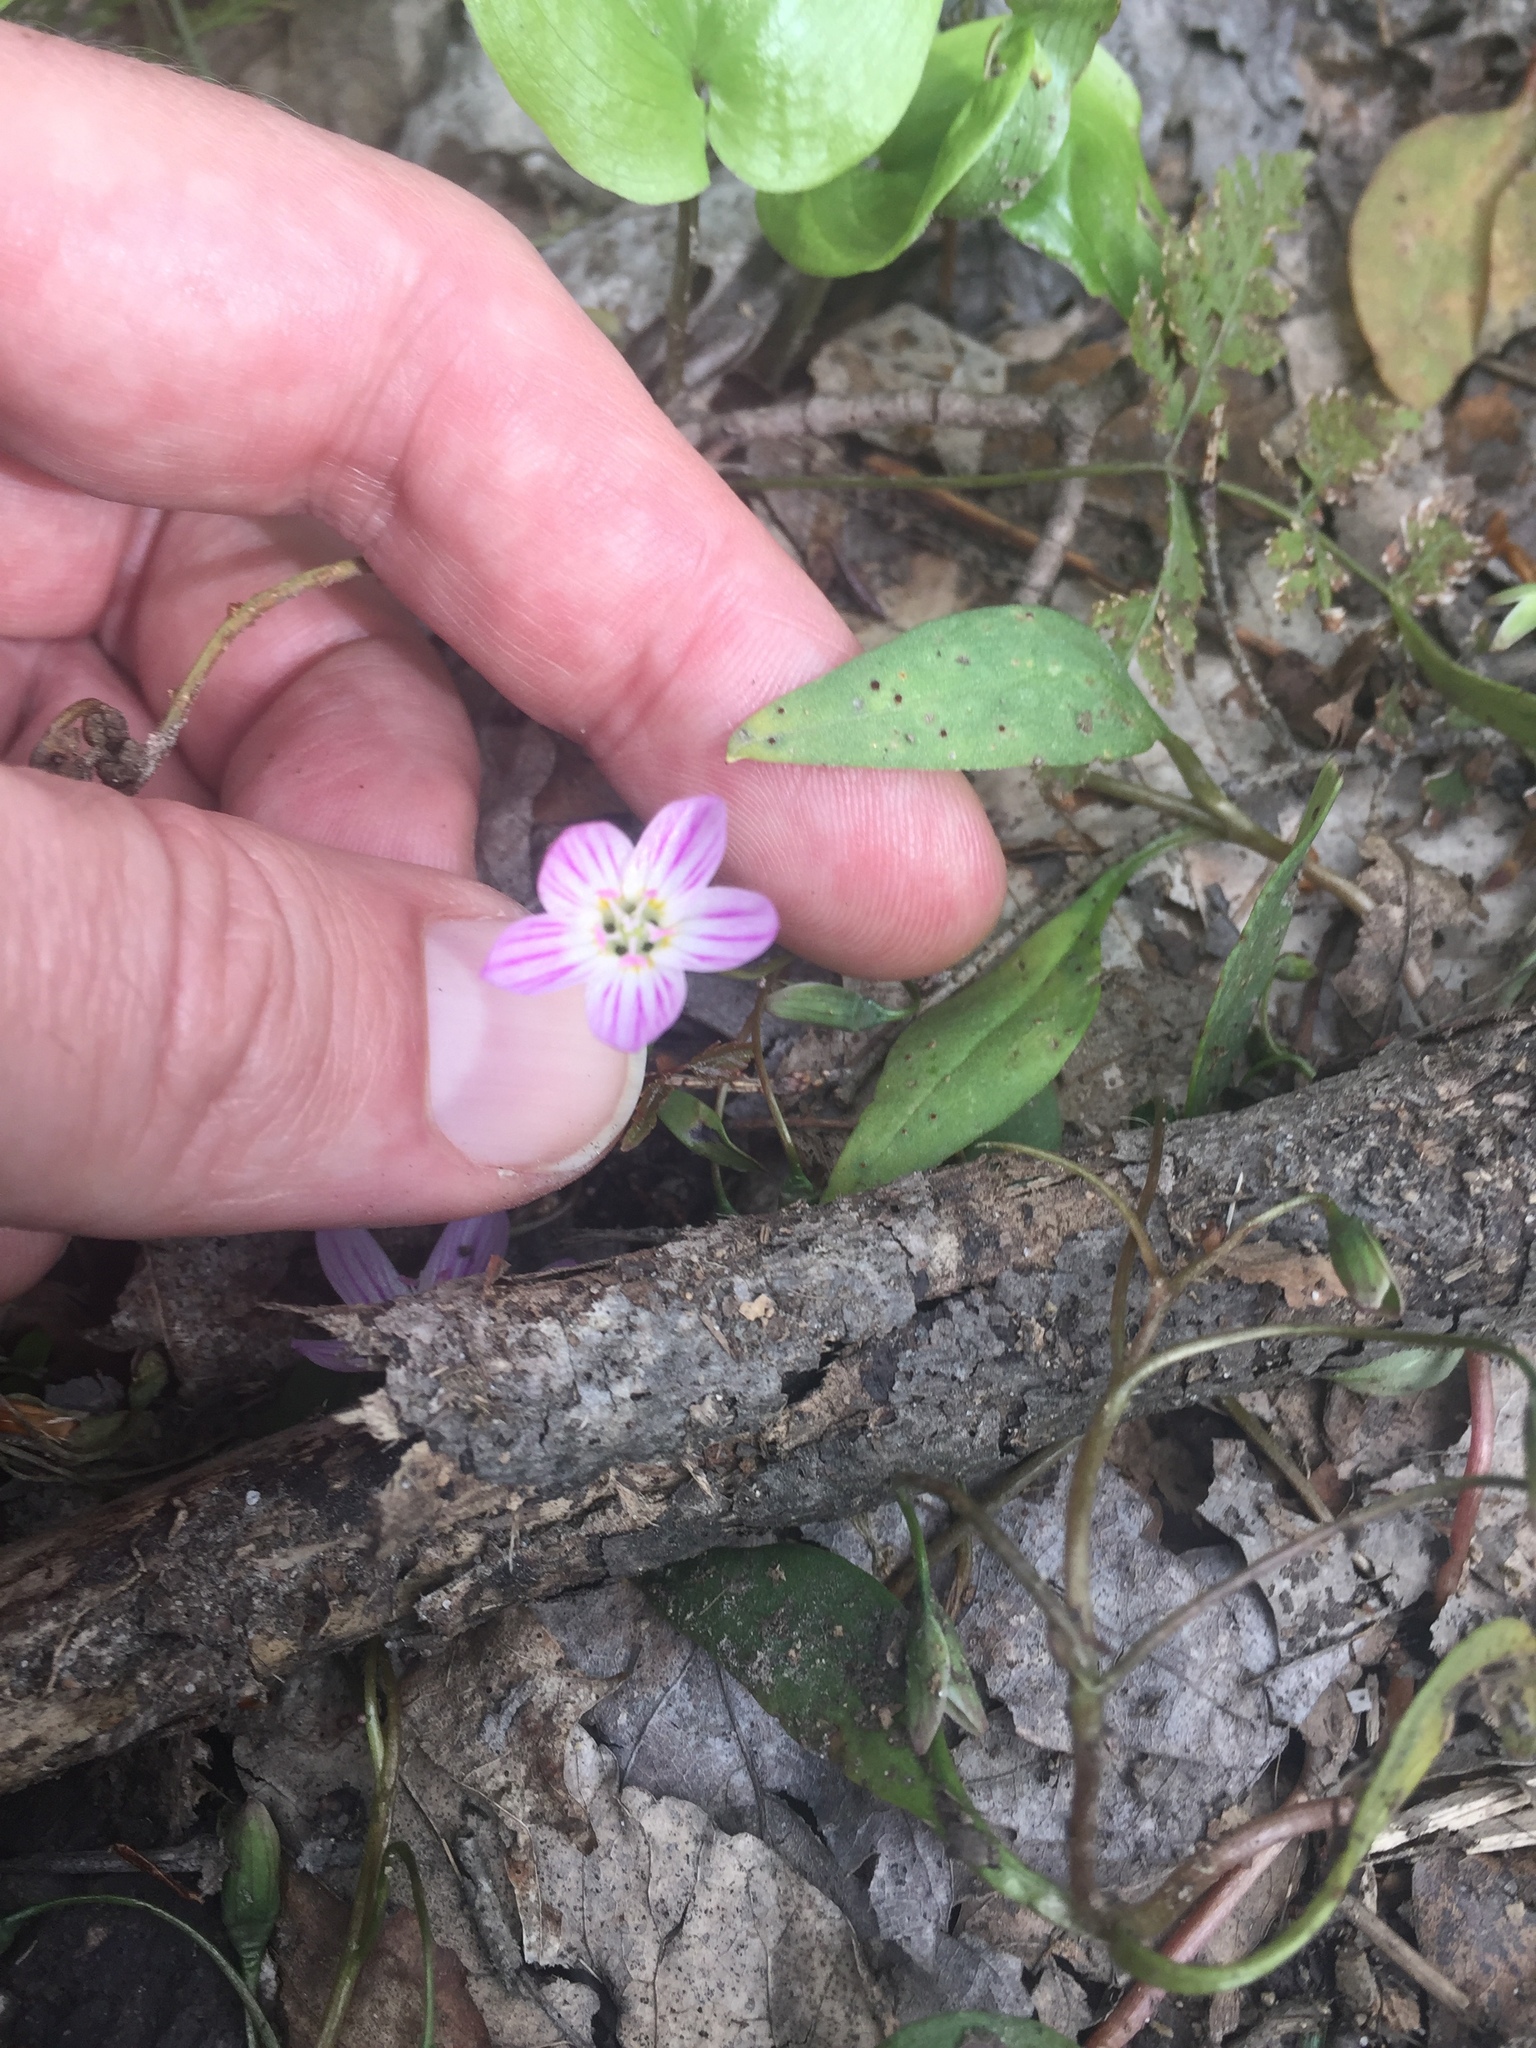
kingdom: Plantae
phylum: Tracheophyta
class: Magnoliopsida
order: Caryophyllales
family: Montiaceae
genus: Claytonia
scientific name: Claytonia caroliniana
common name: Carolina spring beauty
